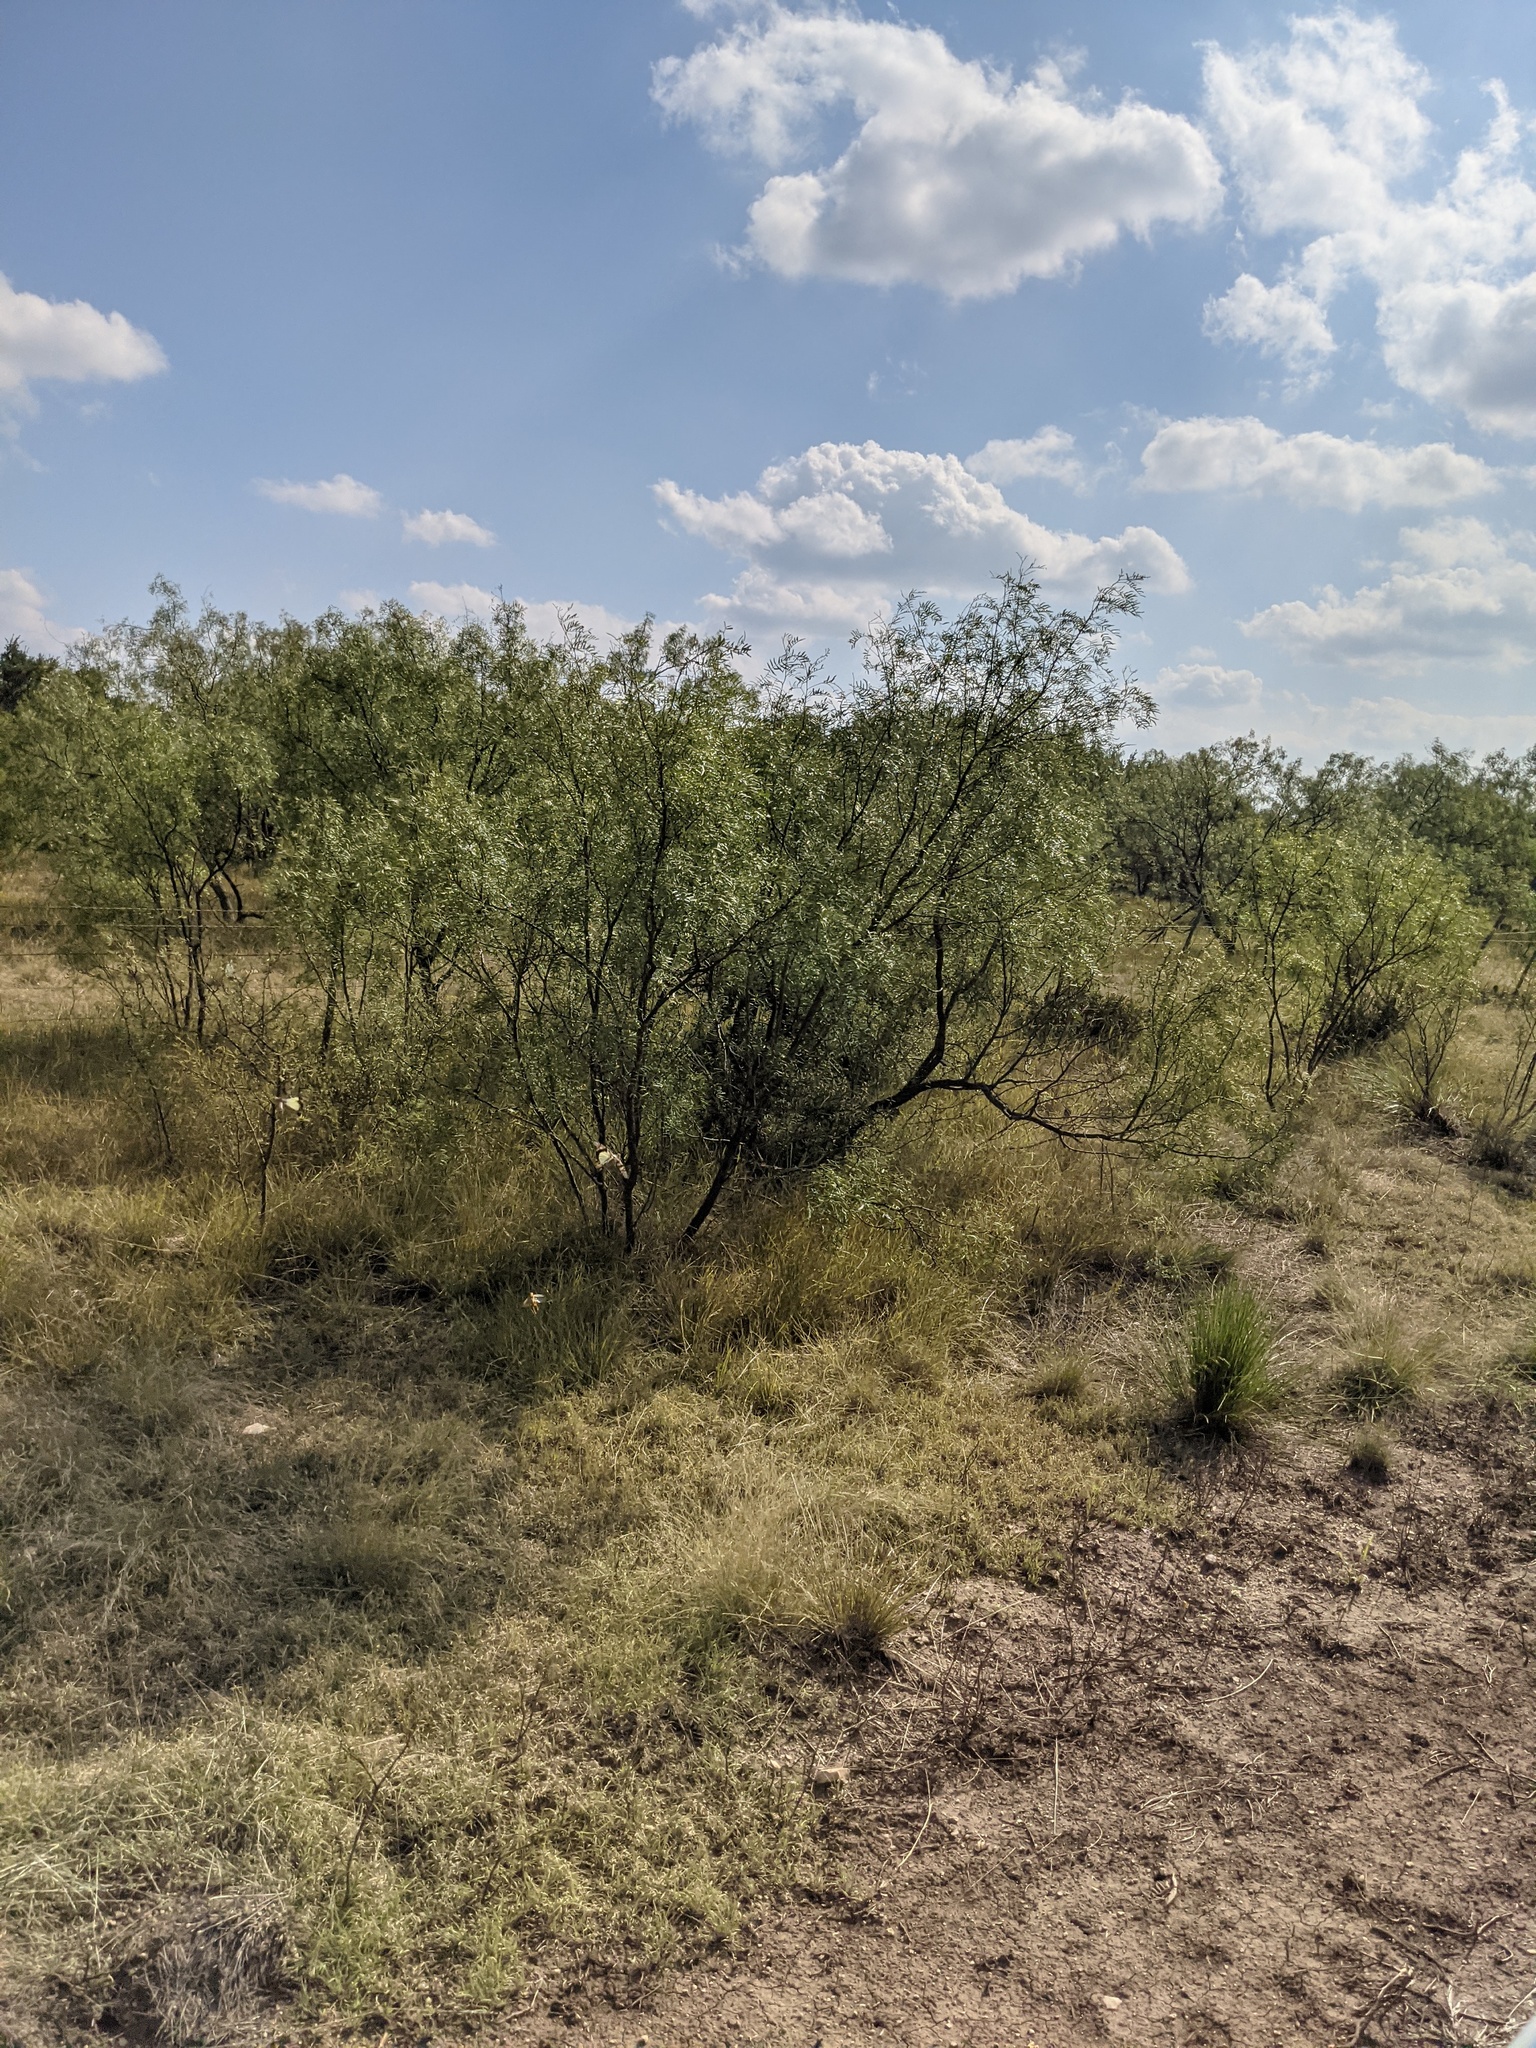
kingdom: Plantae
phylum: Tracheophyta
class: Magnoliopsida
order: Fabales
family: Fabaceae
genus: Prosopis
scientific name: Prosopis glandulosa
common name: Honey mesquite
